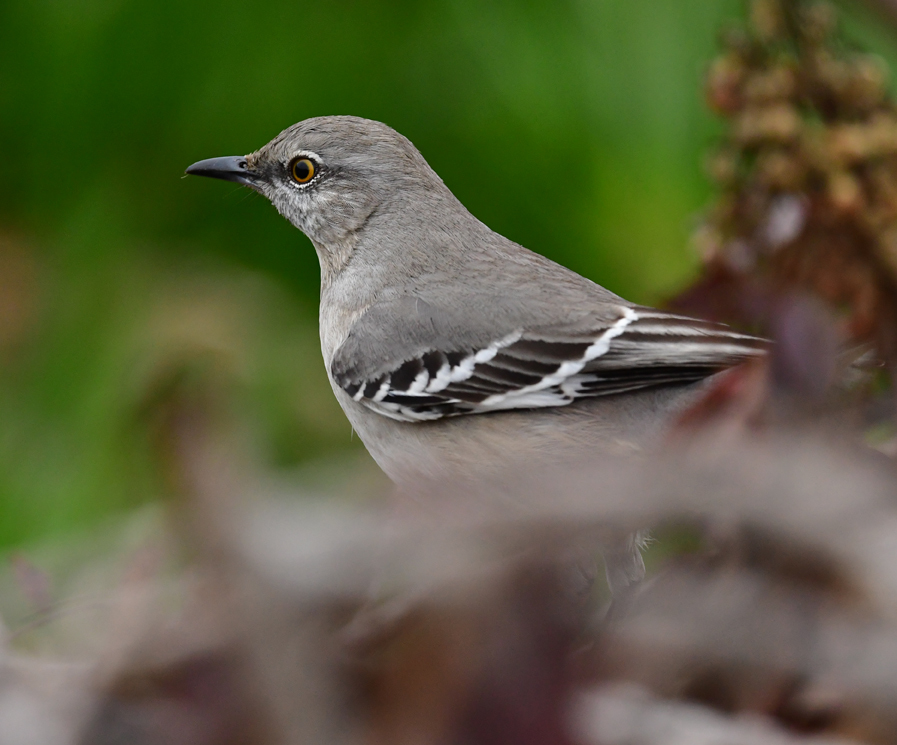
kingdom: Animalia
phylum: Chordata
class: Aves
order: Passeriformes
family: Mimidae
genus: Mimus
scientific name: Mimus polyglottos
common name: Northern mockingbird
